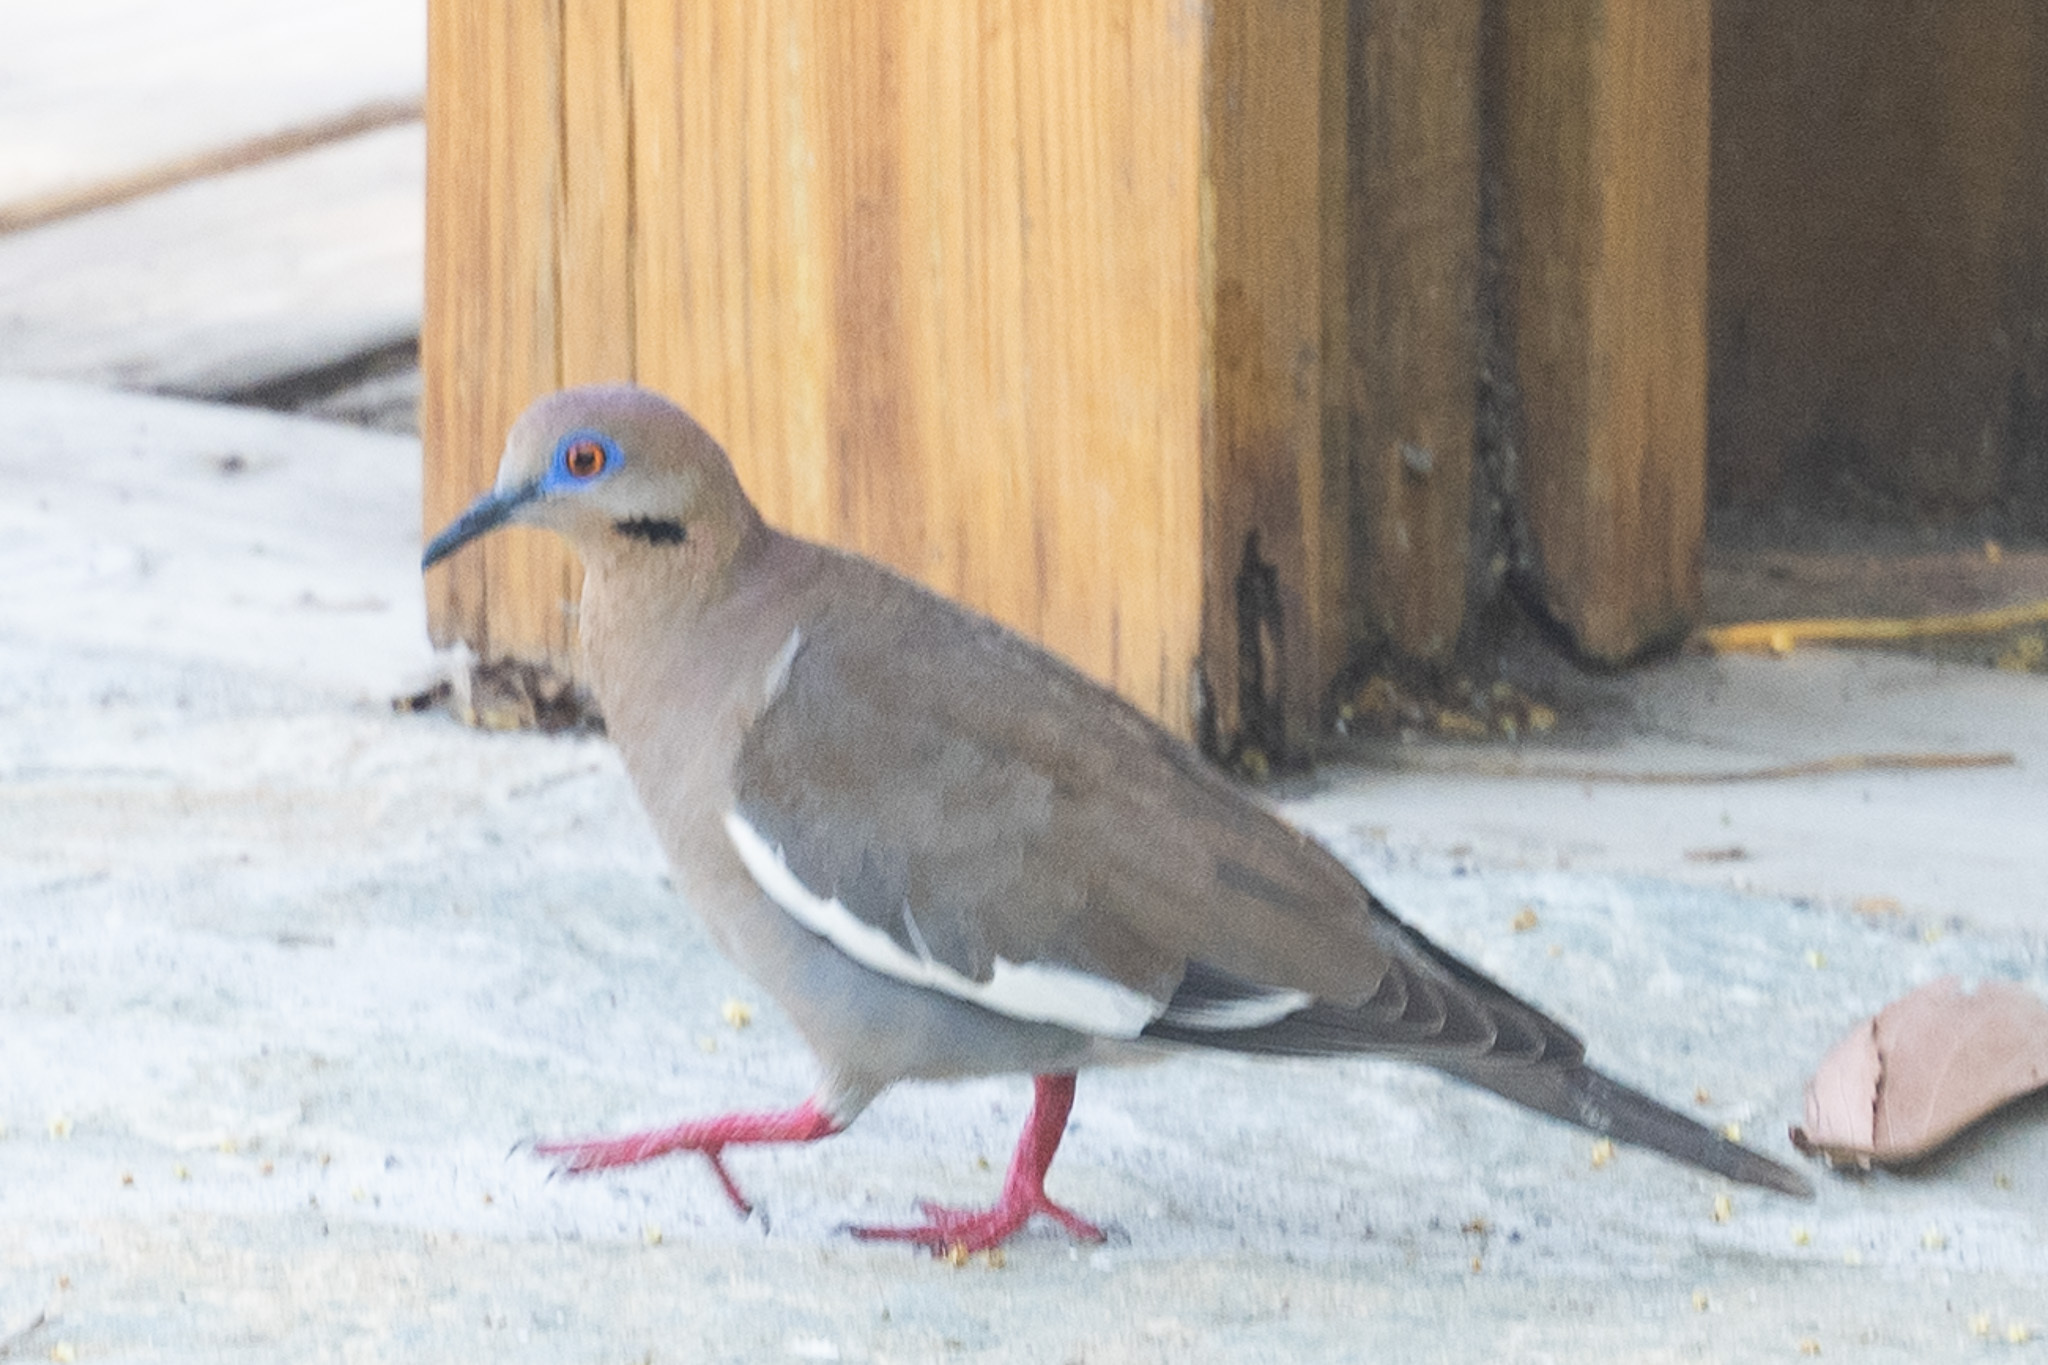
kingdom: Animalia
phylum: Chordata
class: Aves
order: Columbiformes
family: Columbidae
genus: Zenaida
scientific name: Zenaida asiatica
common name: White-winged dove
